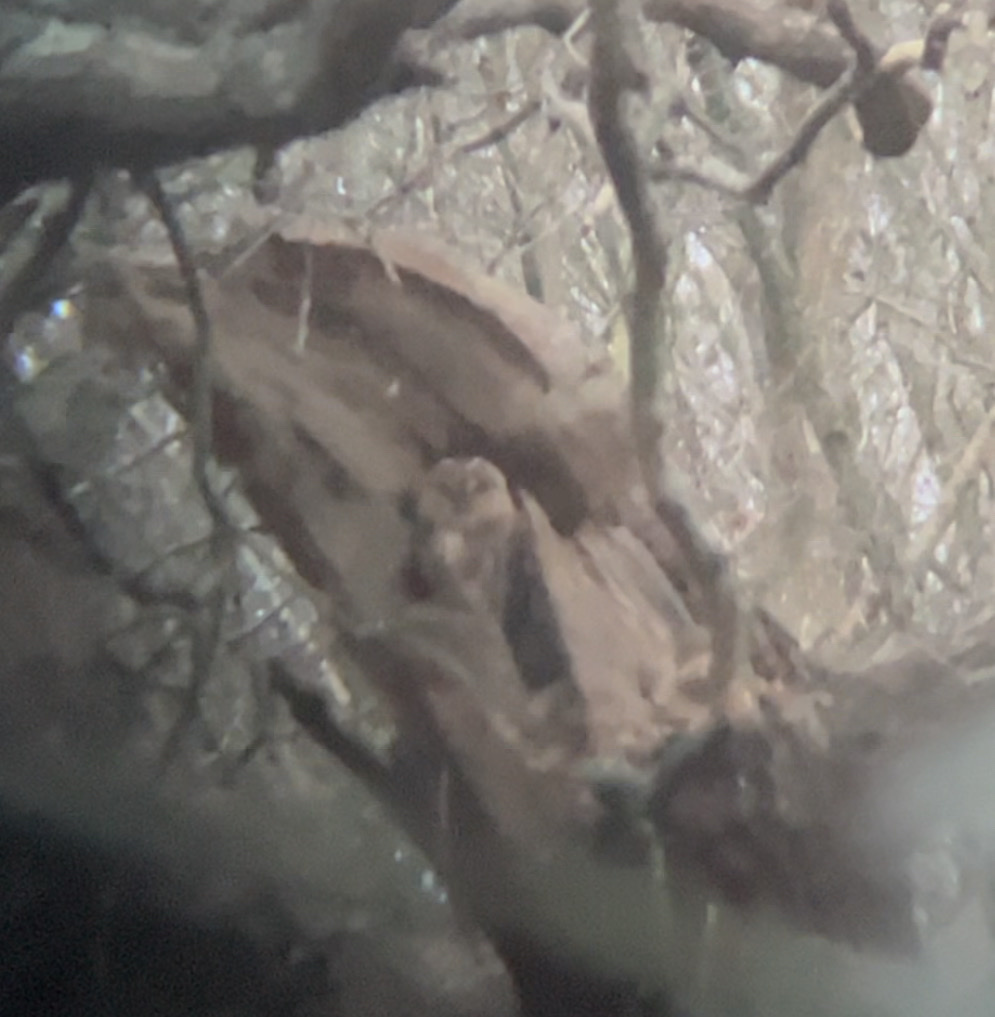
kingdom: Animalia
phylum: Chordata
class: Aves
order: Strigiformes
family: Strigidae
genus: Strix
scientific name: Strix aluco
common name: Tawny owl
